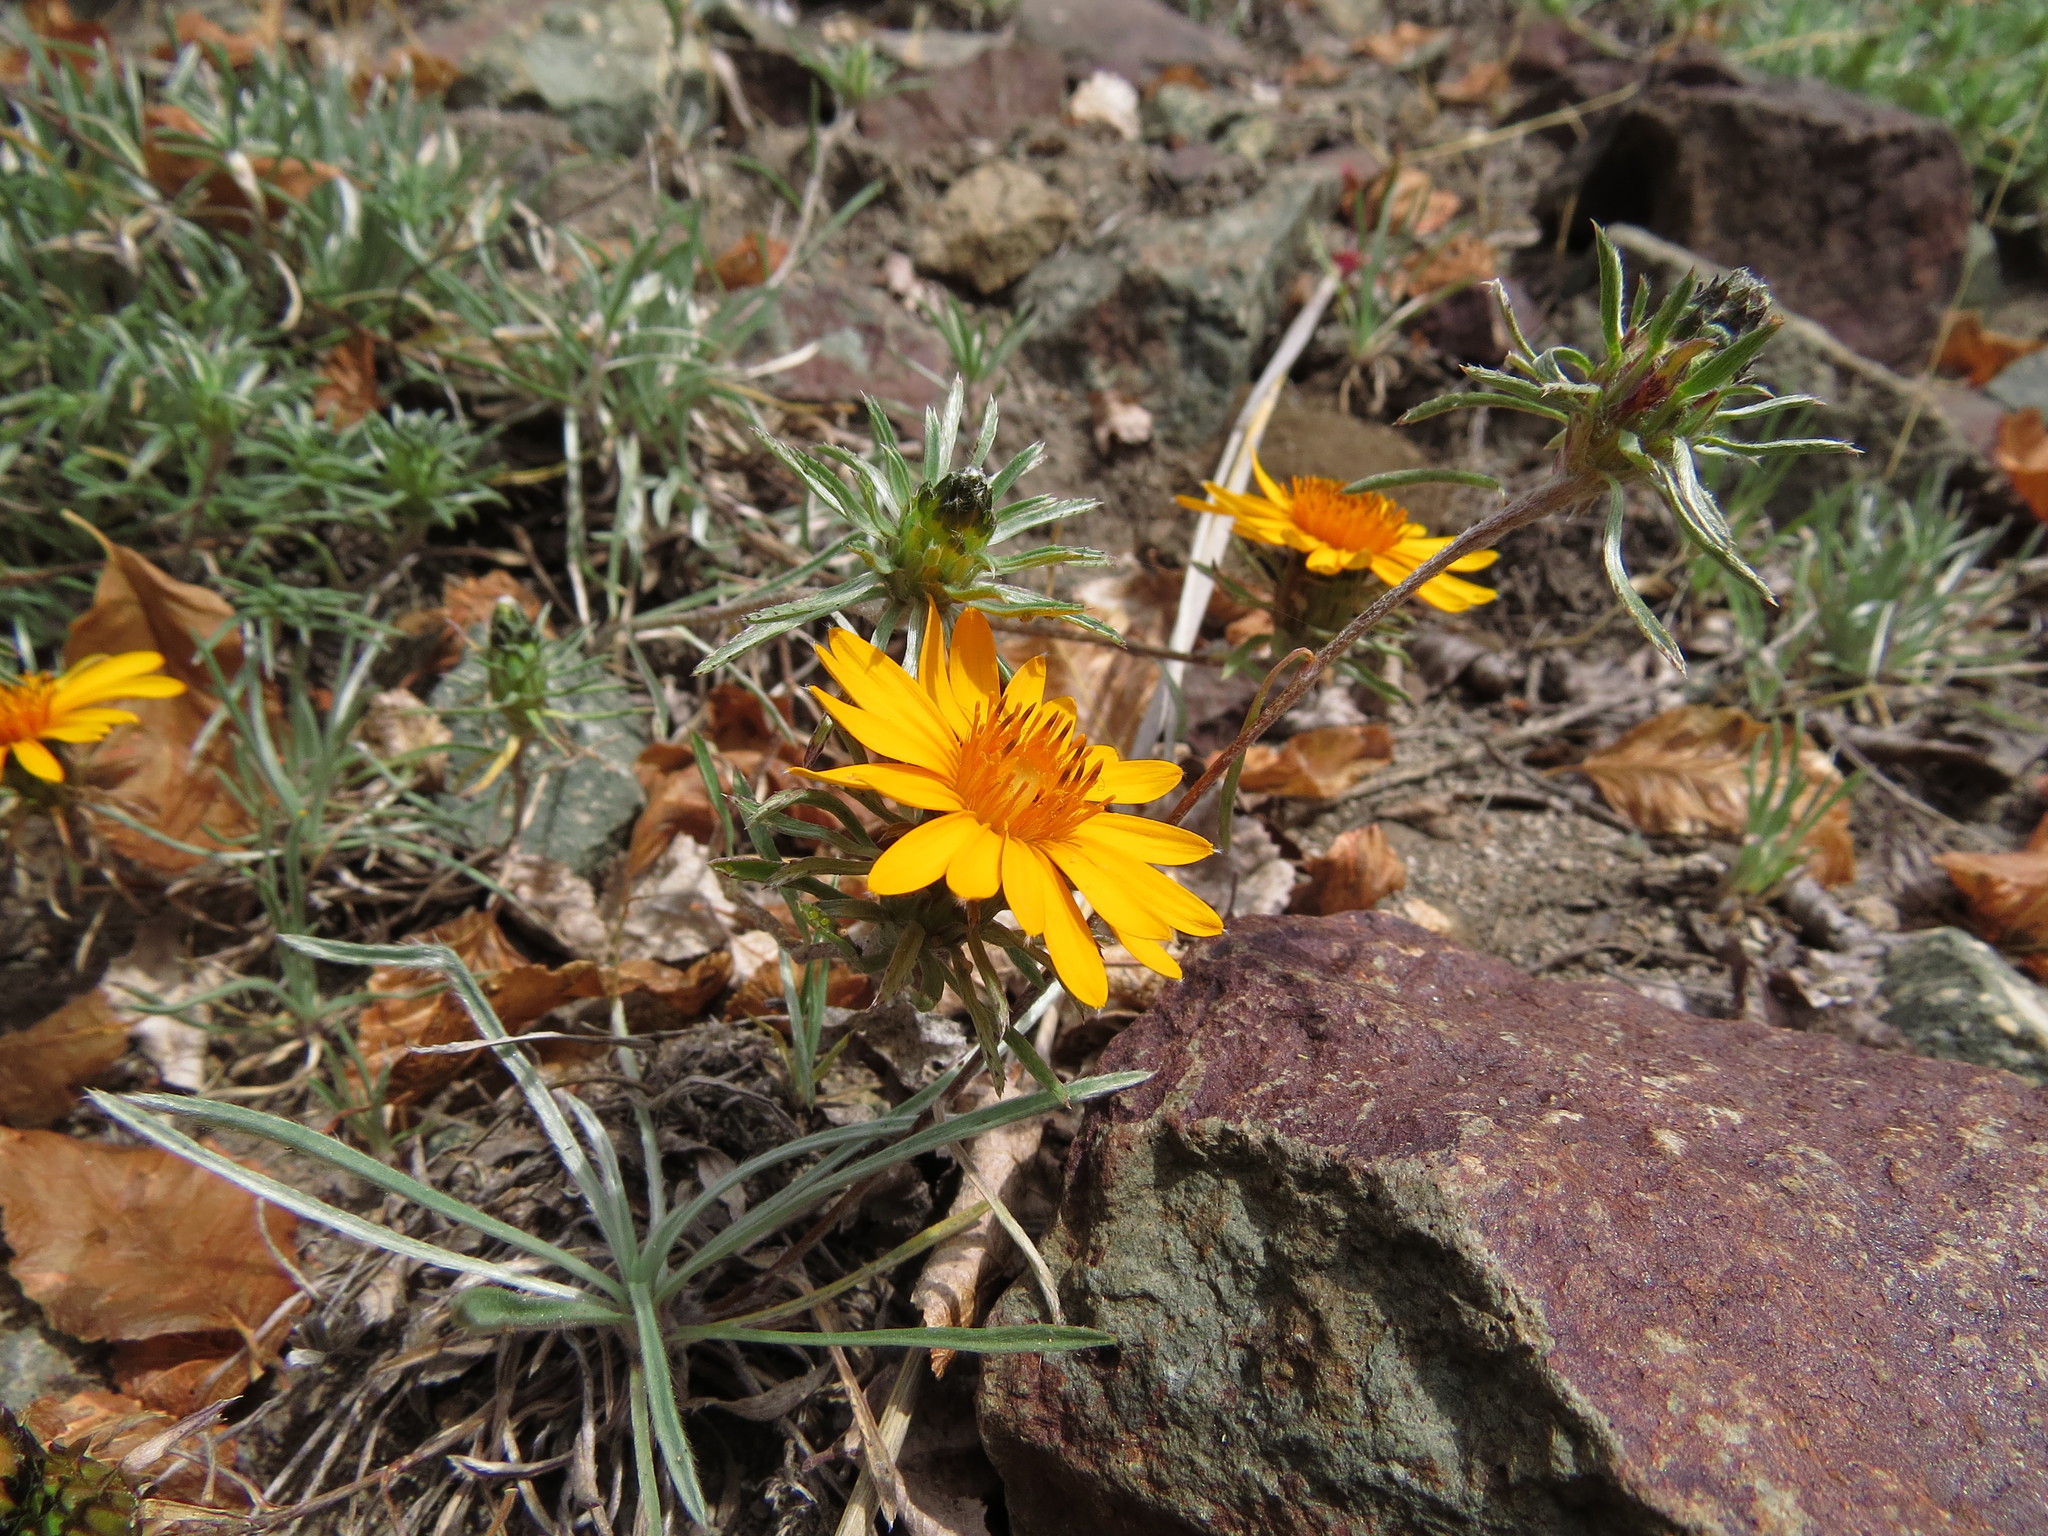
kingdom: Plantae
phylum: Tracheophyta
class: Magnoliopsida
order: Asterales
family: Asteraceae
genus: Chaetanthera
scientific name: Chaetanthera chilensis
